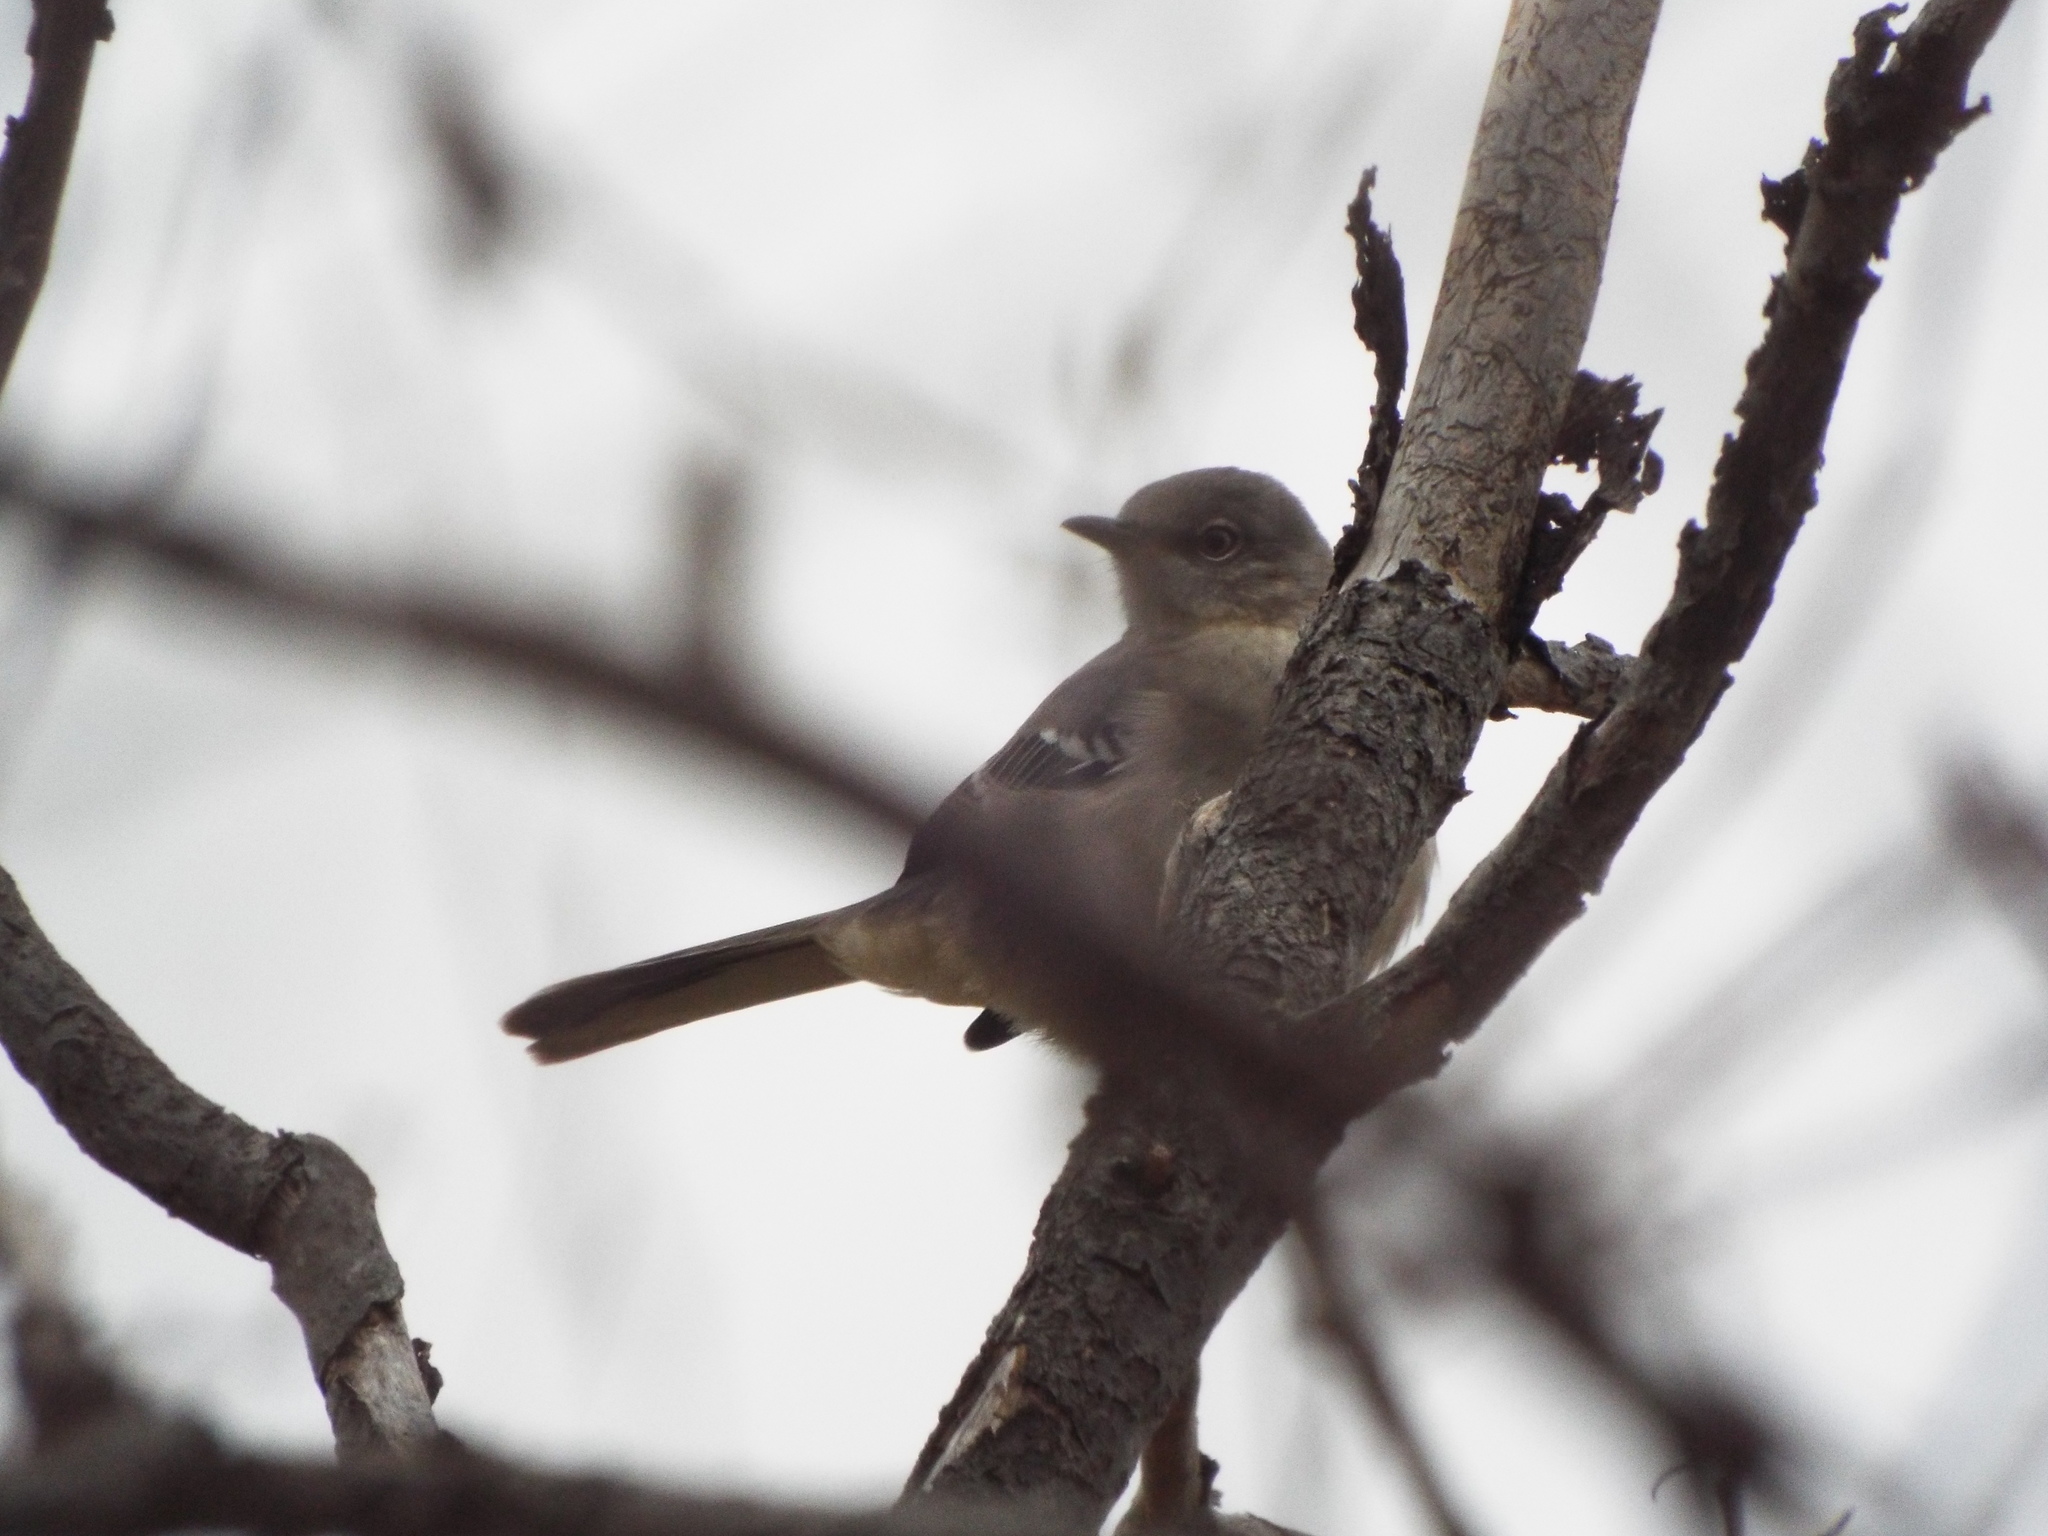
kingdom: Animalia
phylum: Chordata
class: Aves
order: Passeriformes
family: Mimidae
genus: Mimus
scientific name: Mimus polyglottos
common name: Northern mockingbird
